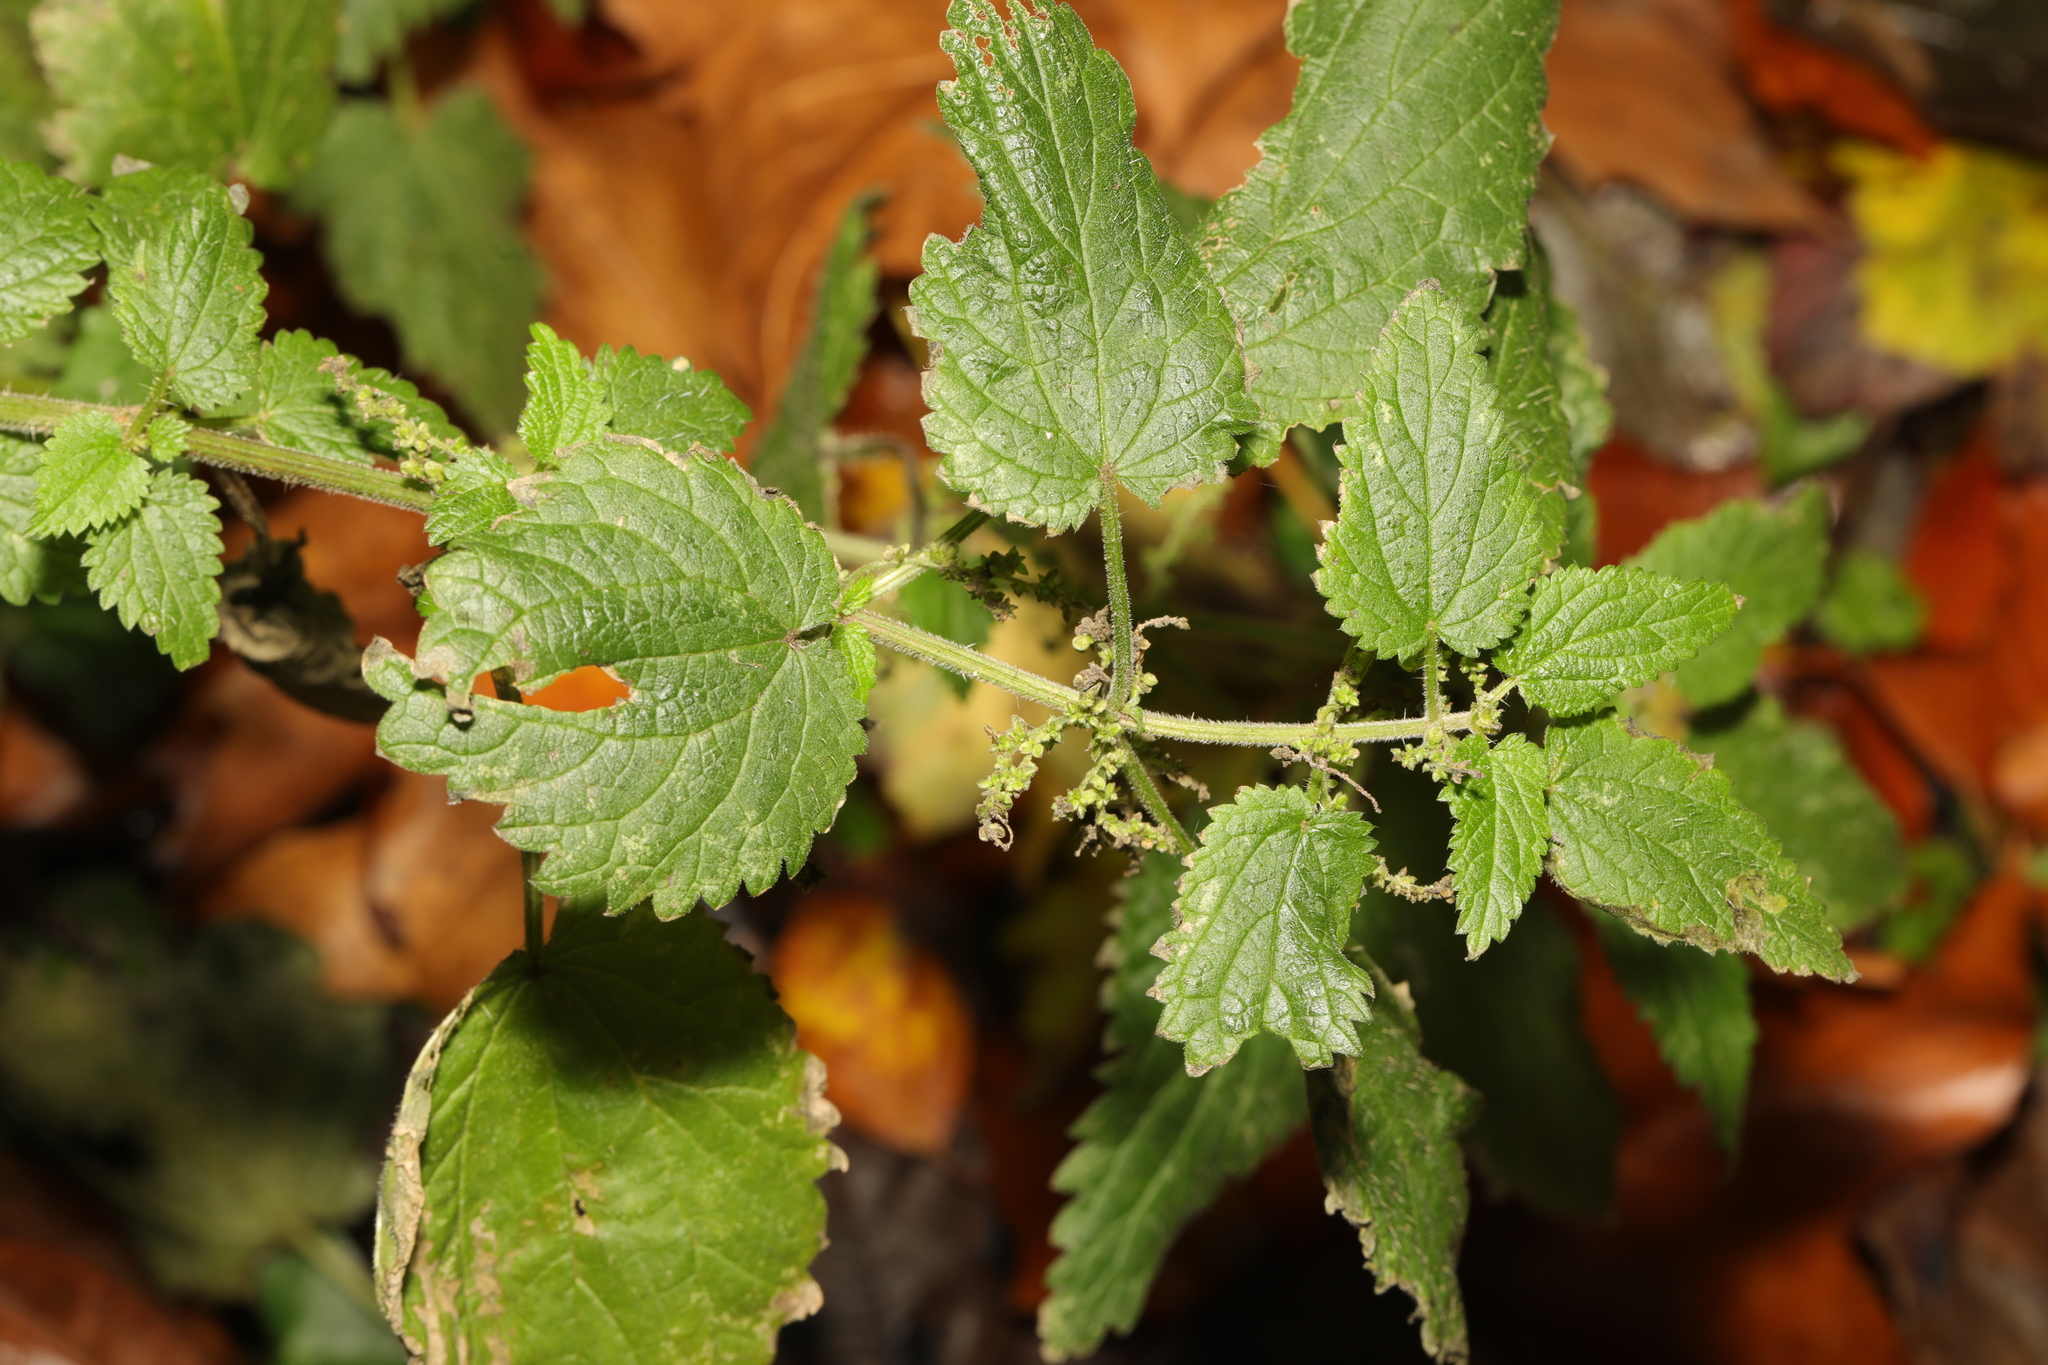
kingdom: Plantae
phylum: Tracheophyta
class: Magnoliopsida
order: Rosales
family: Urticaceae
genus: Urtica
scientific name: Urtica dioica
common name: Common nettle
